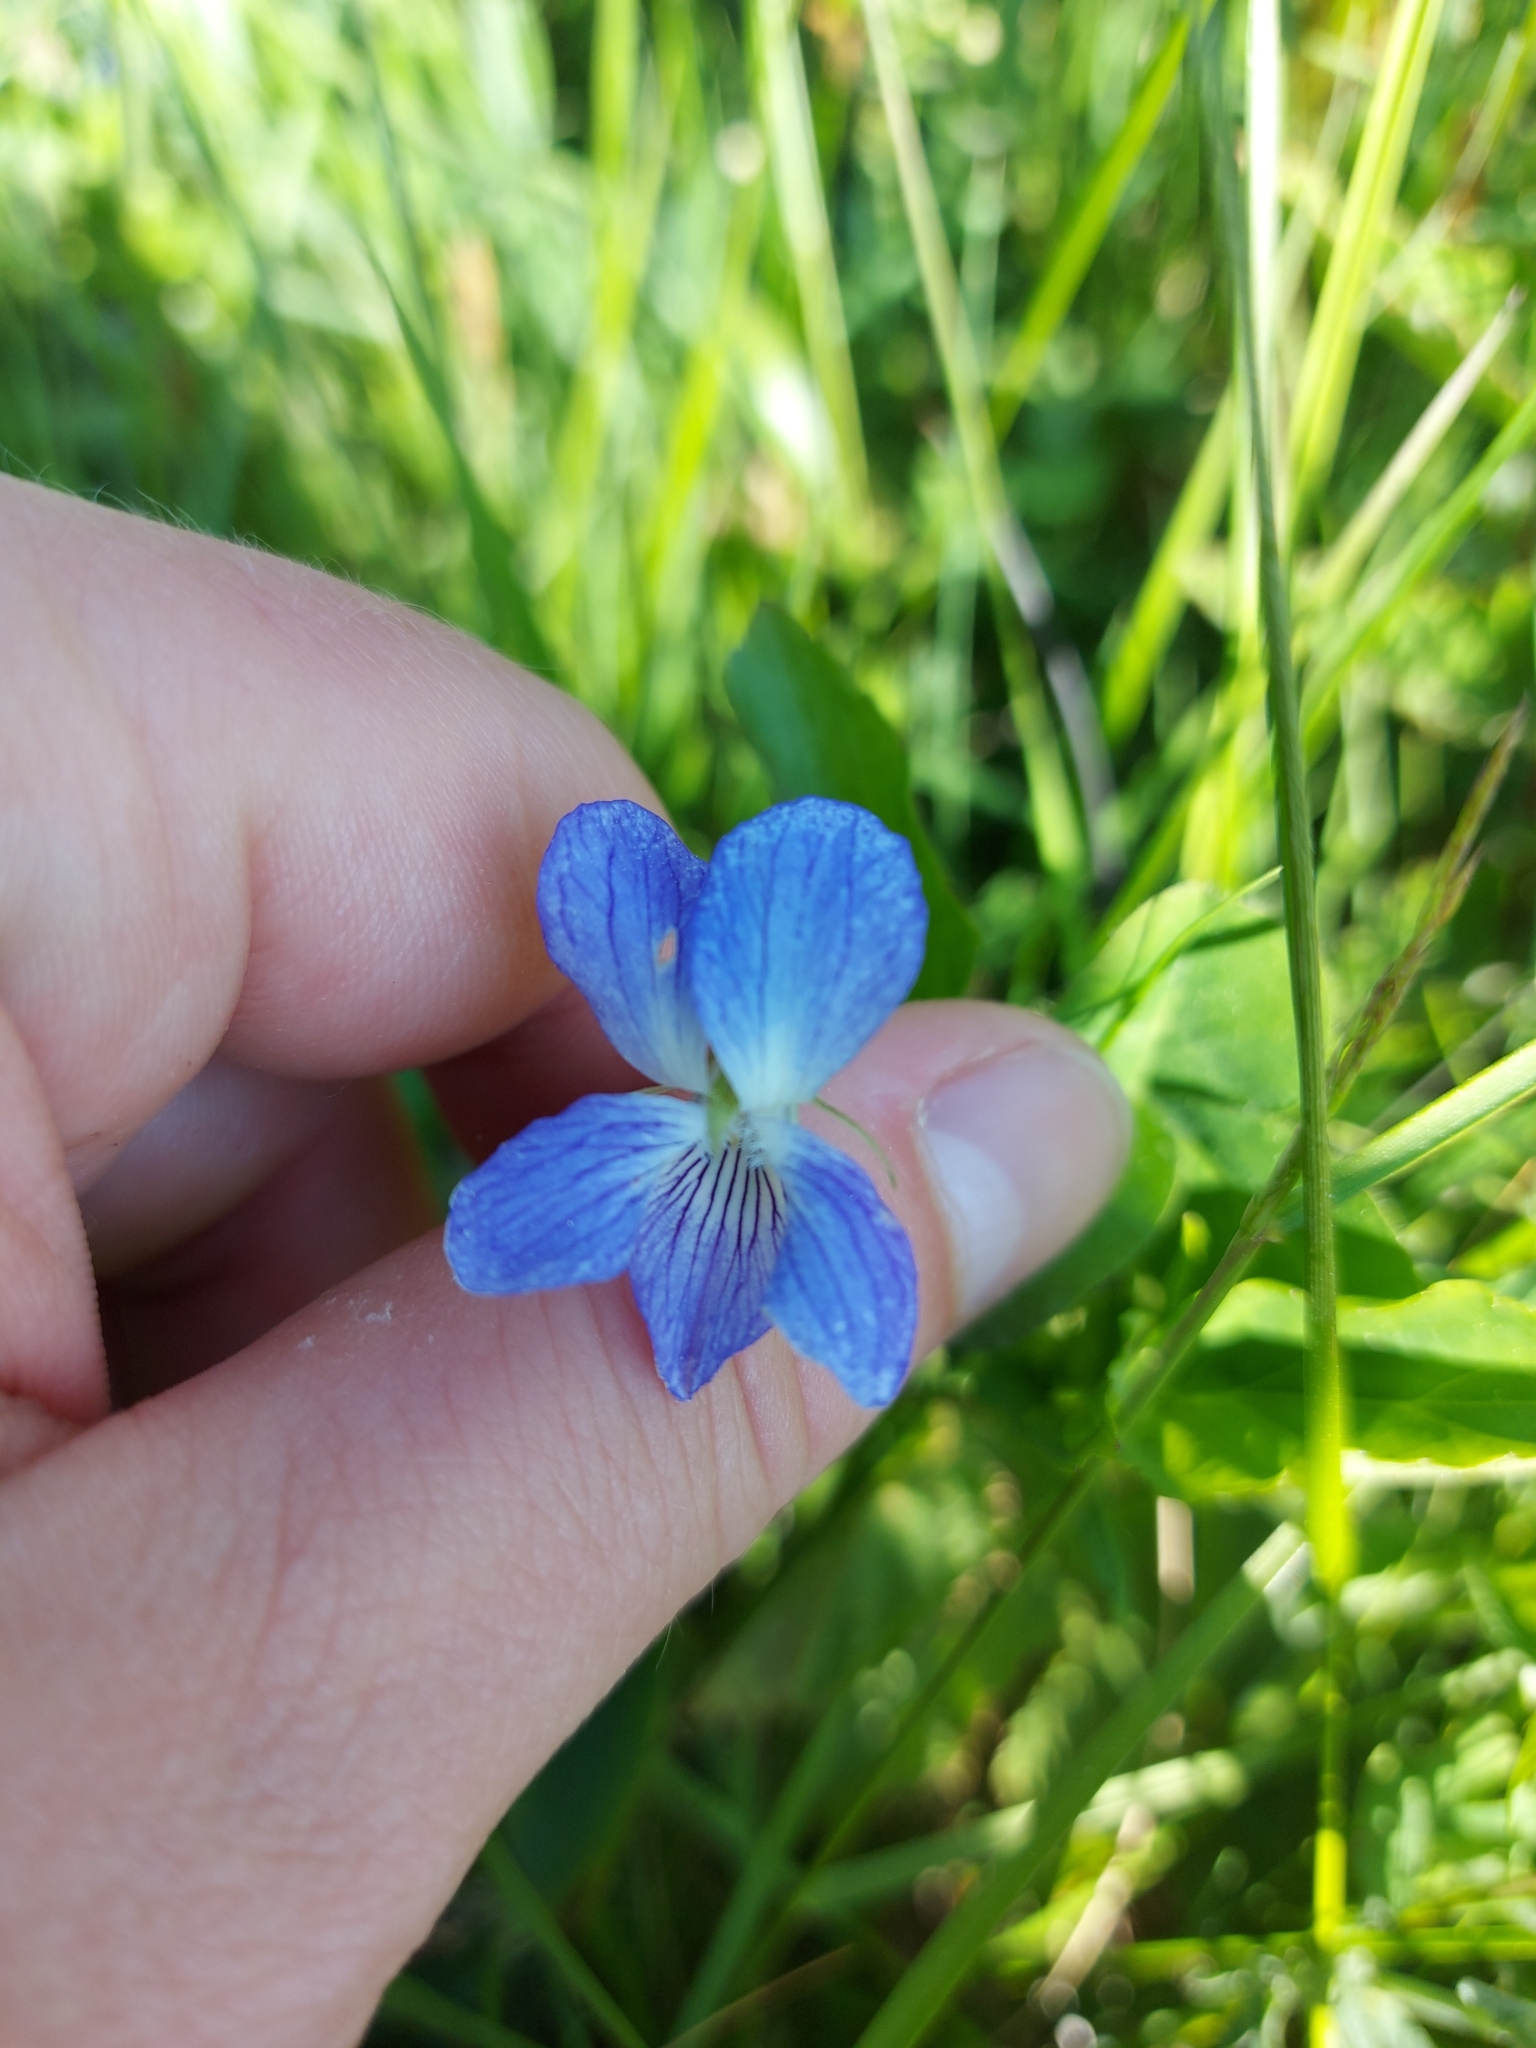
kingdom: Plantae
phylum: Tracheophyta
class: Magnoliopsida
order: Malpighiales
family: Violaceae
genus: Viola
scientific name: Viola canina
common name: Heath dog-violet
